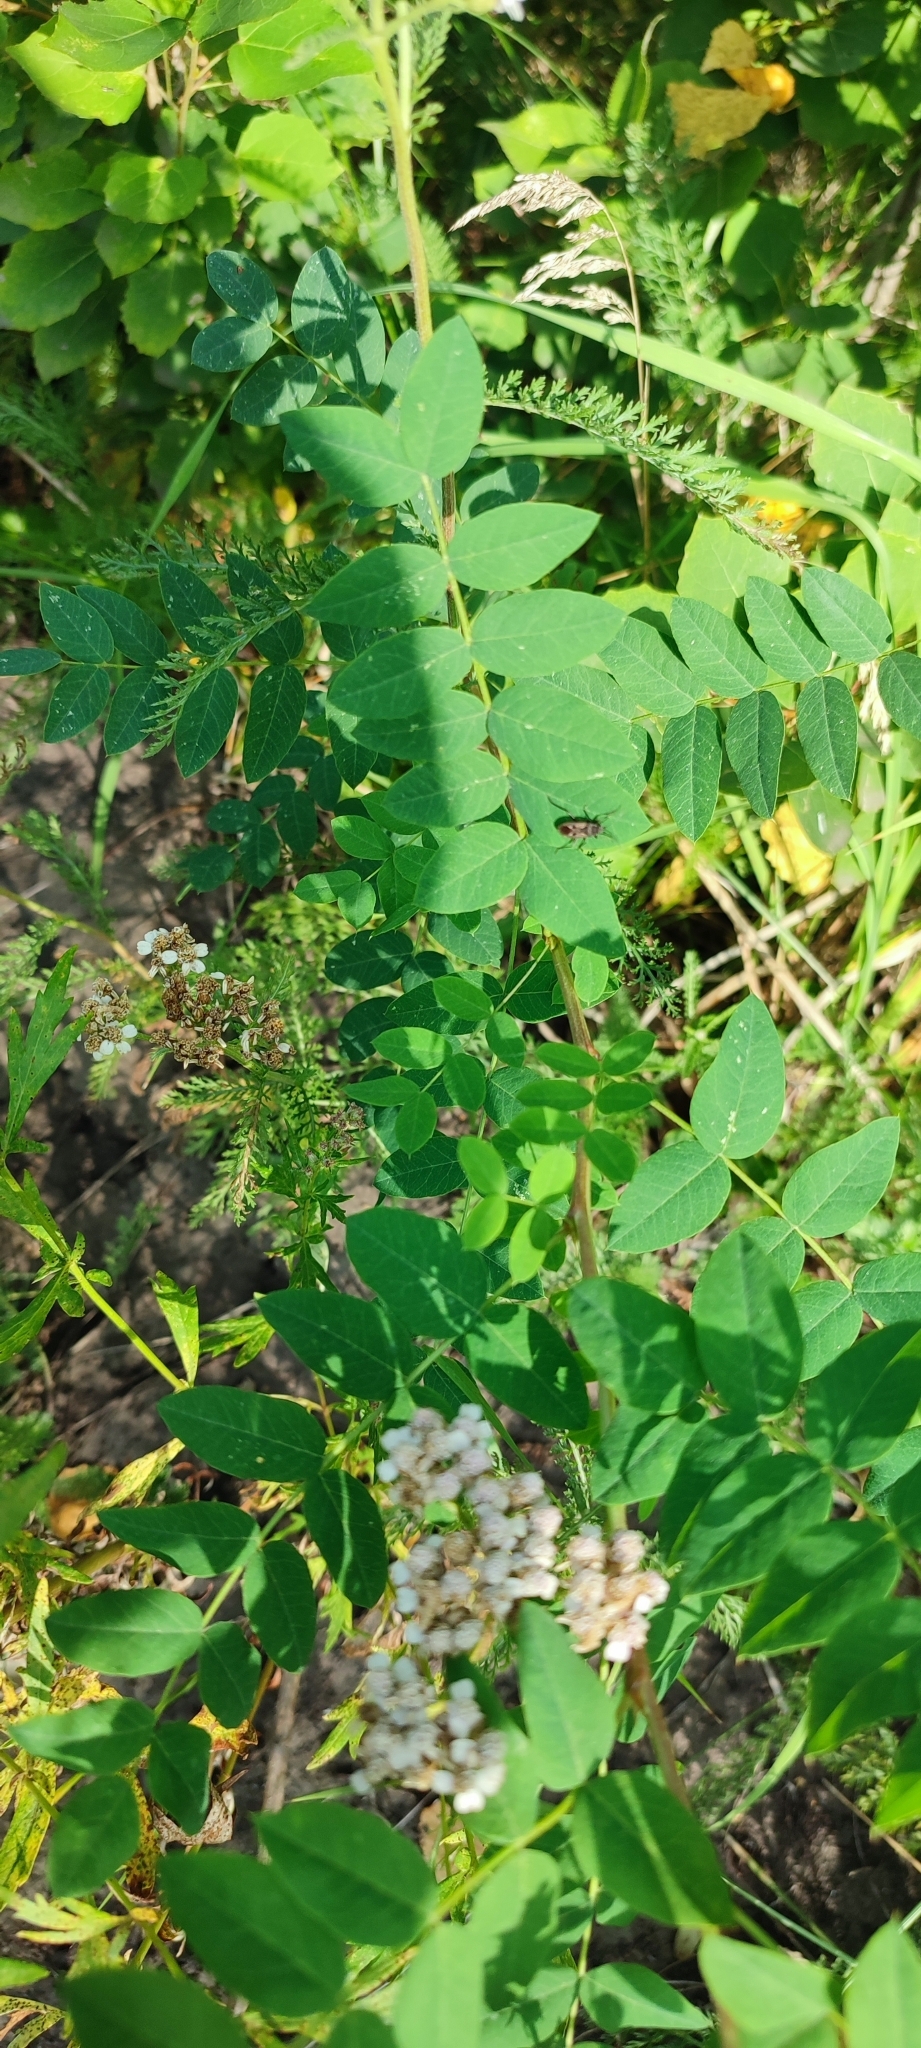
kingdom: Plantae
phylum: Tracheophyta
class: Magnoliopsida
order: Fabales
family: Fabaceae
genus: Caragana
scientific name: Caragana arborescens
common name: Siberian peashrub
